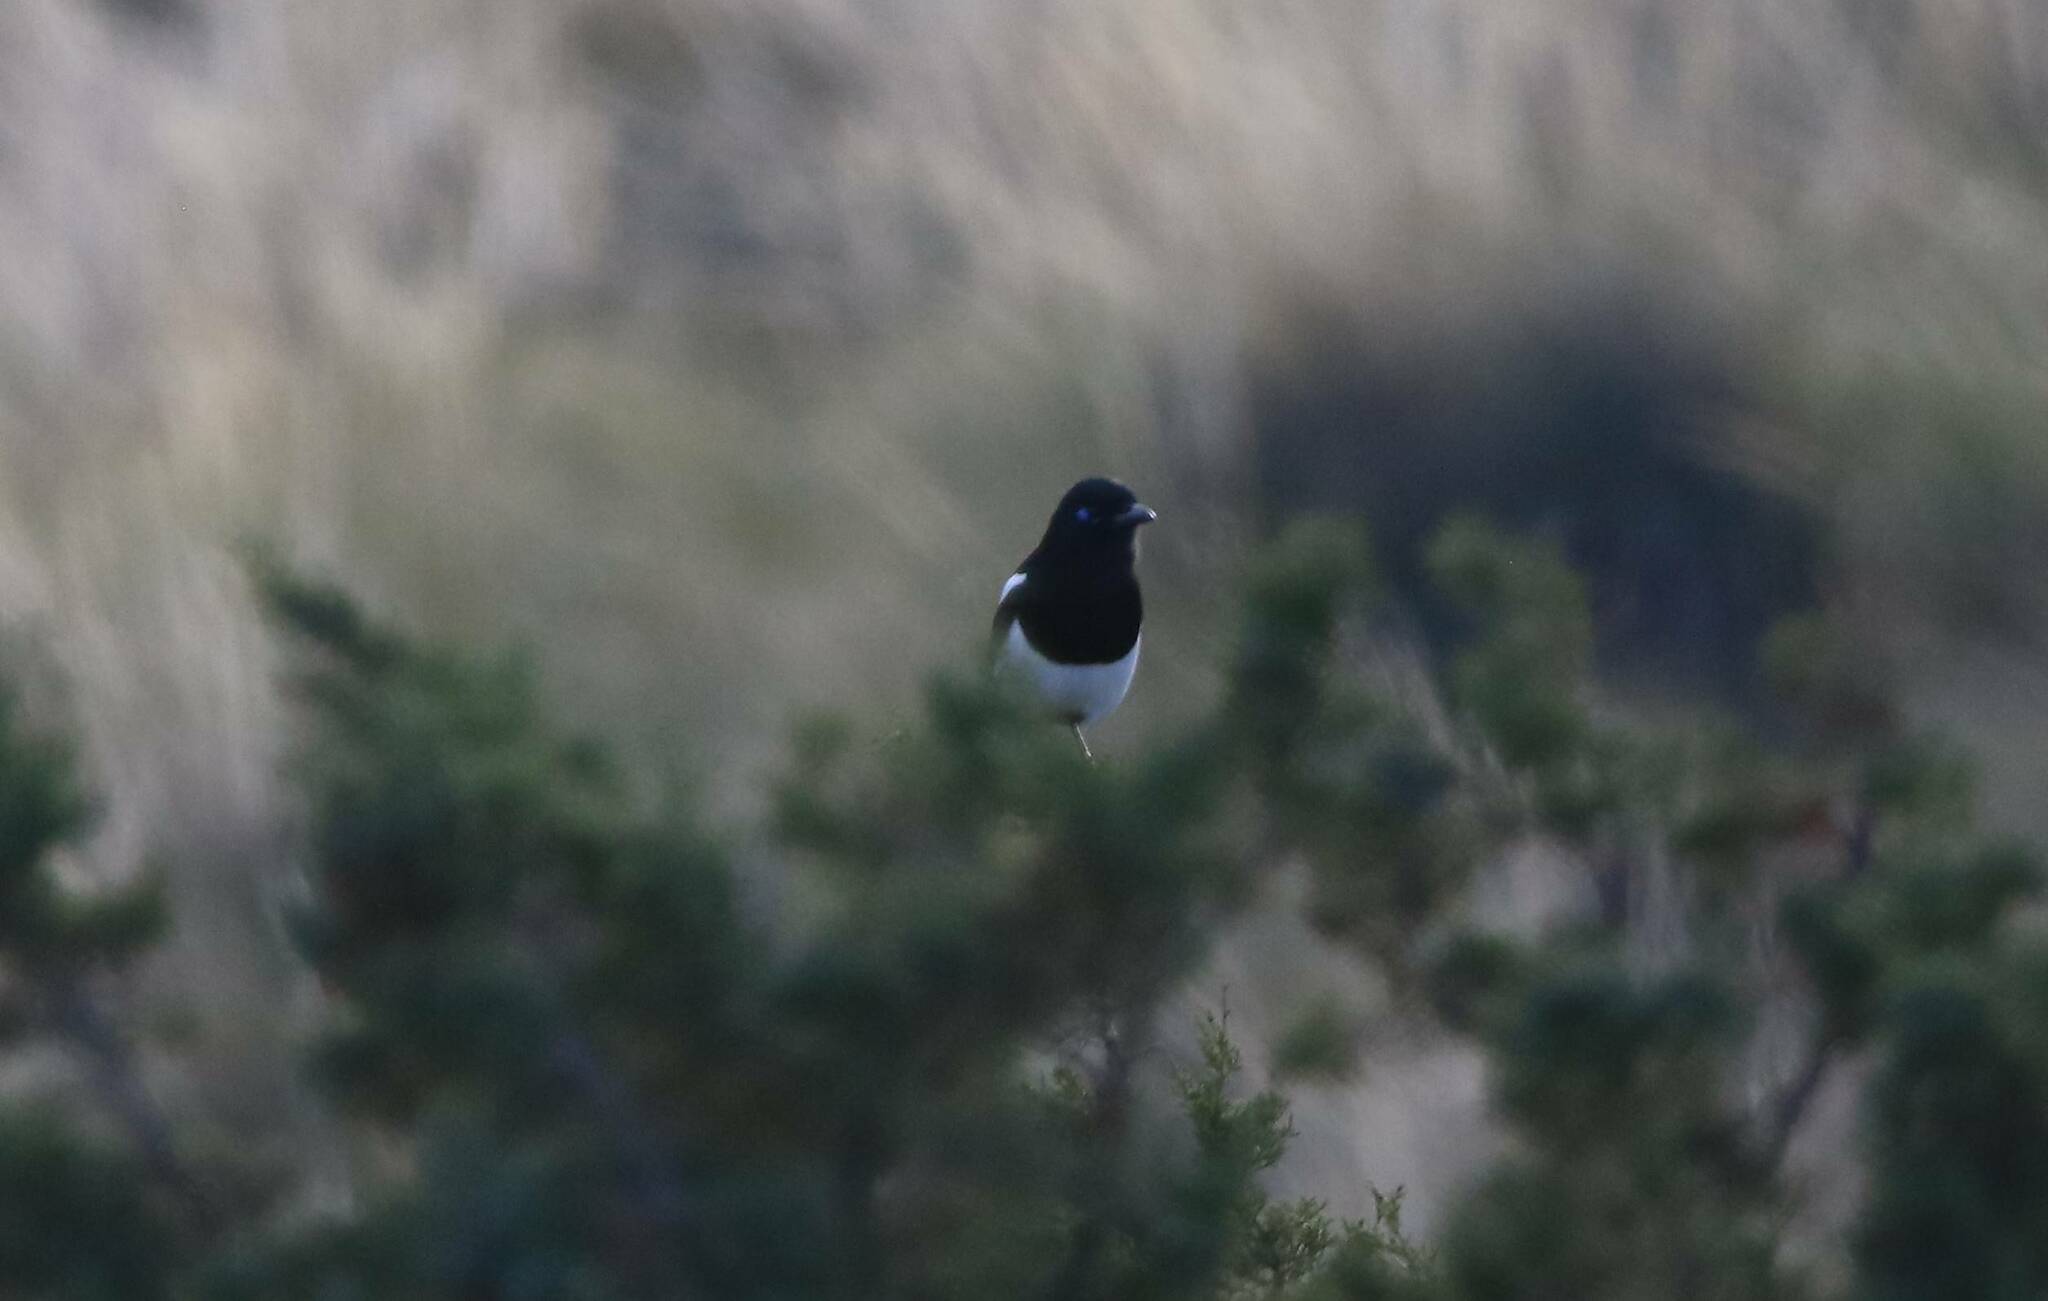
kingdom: Animalia
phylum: Chordata
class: Aves
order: Passeriformes
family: Corvidae
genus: Pica
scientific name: Pica mauritanica
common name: Maghreb magpie
